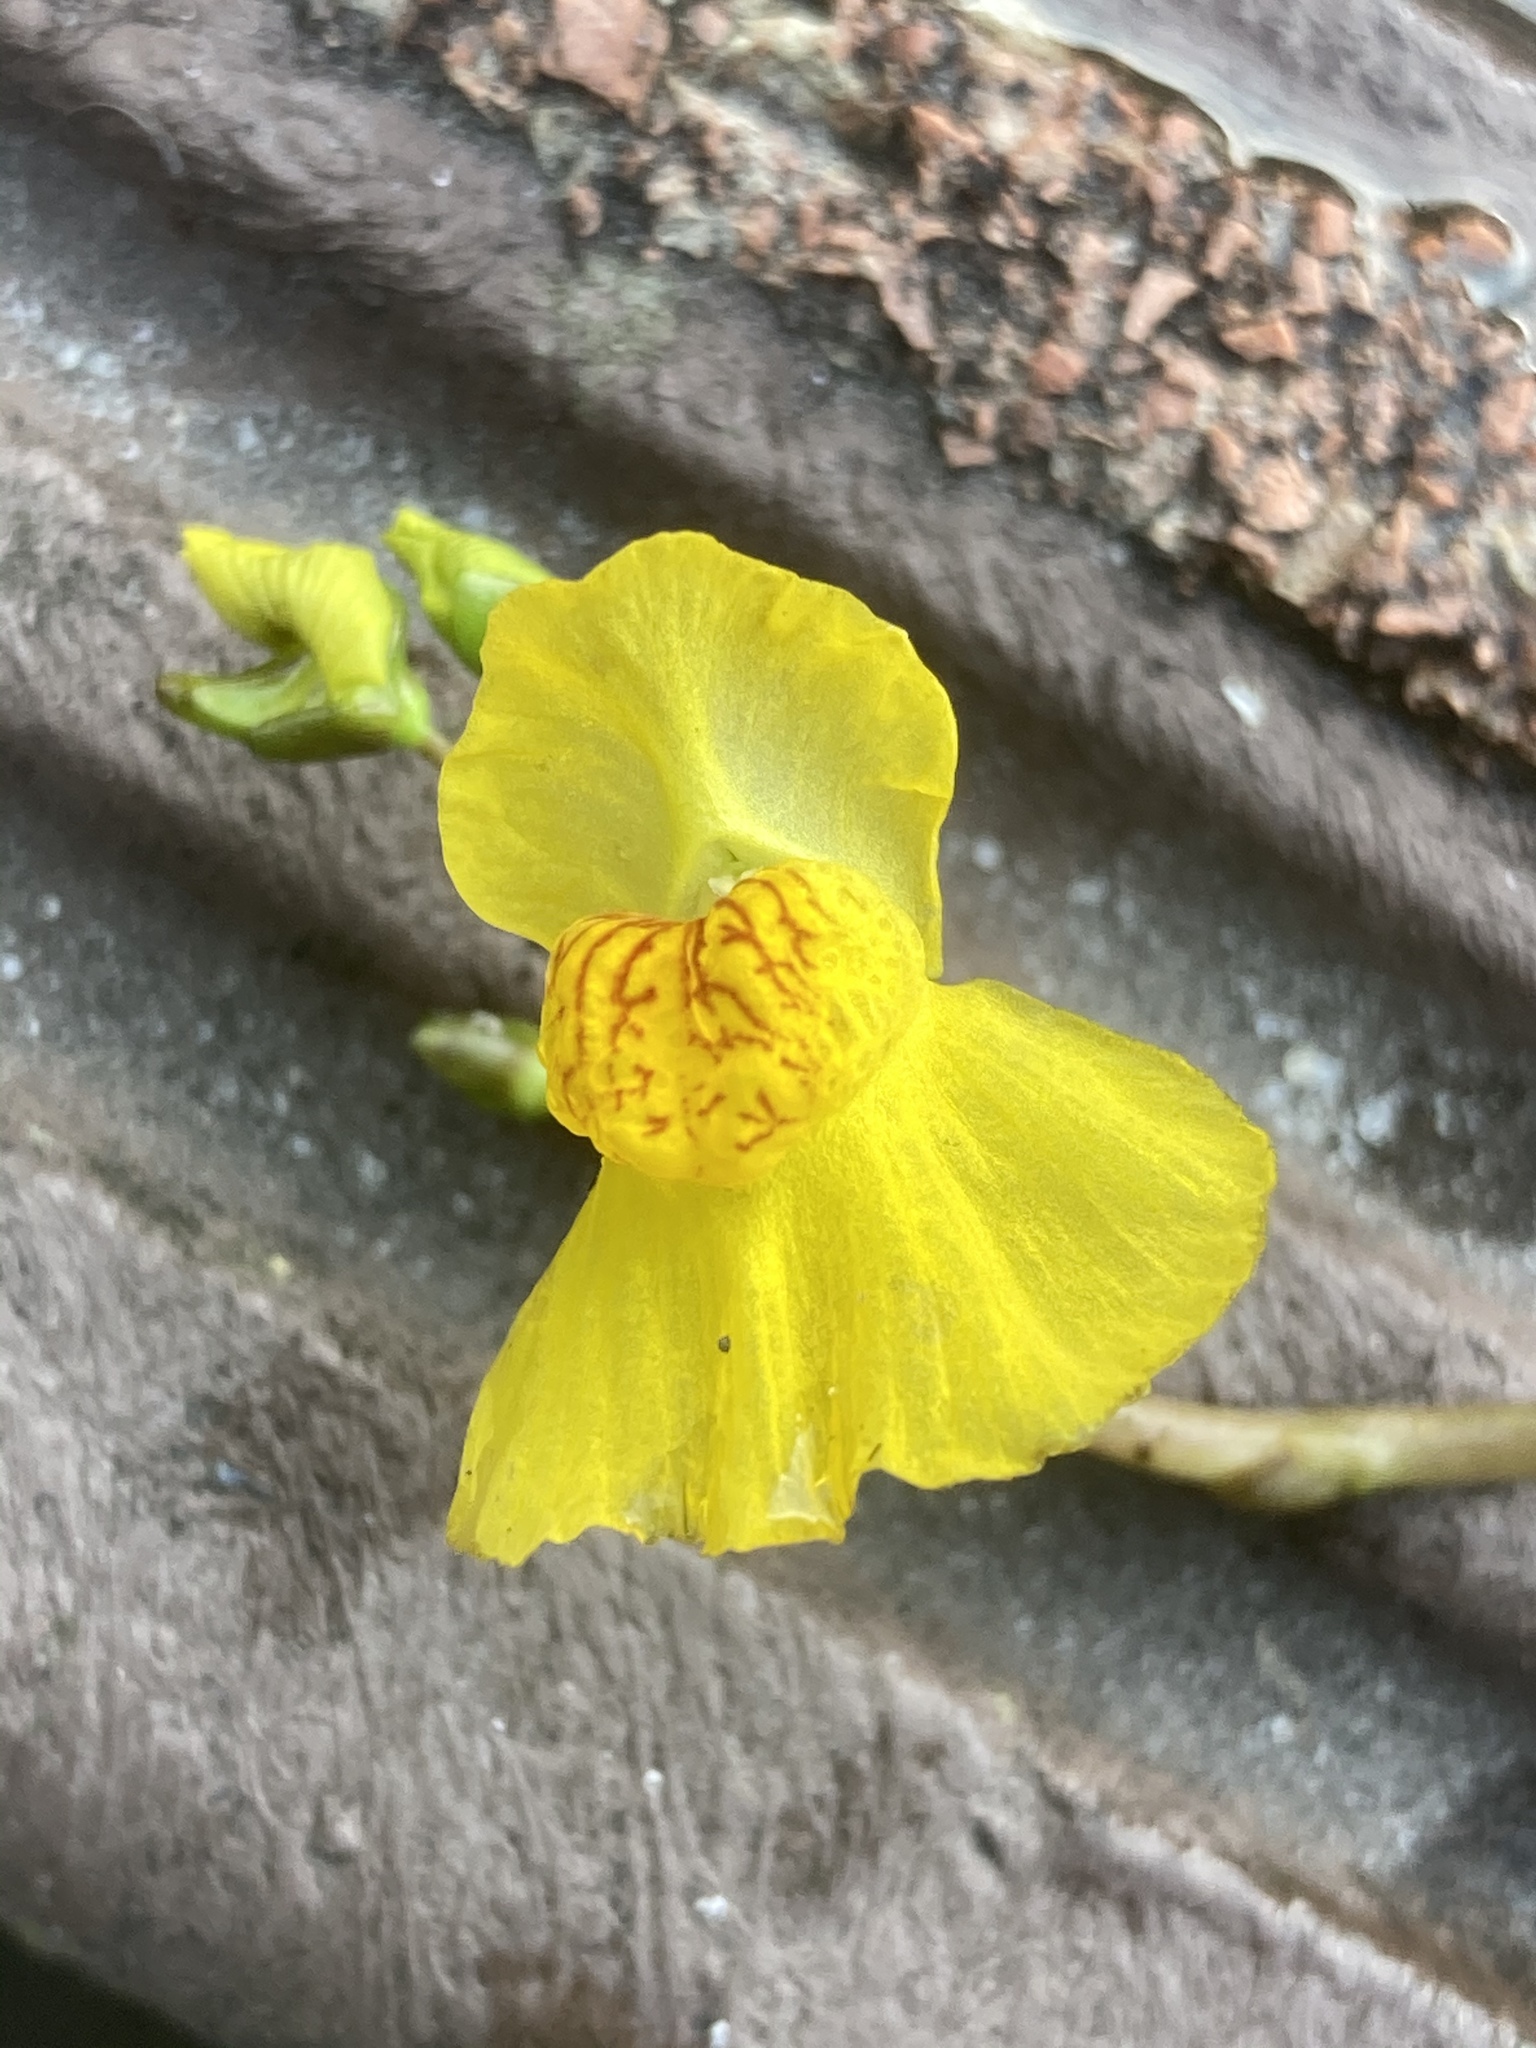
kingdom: Plantae
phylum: Tracheophyta
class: Magnoliopsida
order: Lamiales
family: Lentibulariaceae
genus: Utricularia
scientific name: Utricularia australis
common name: Bladderwort
